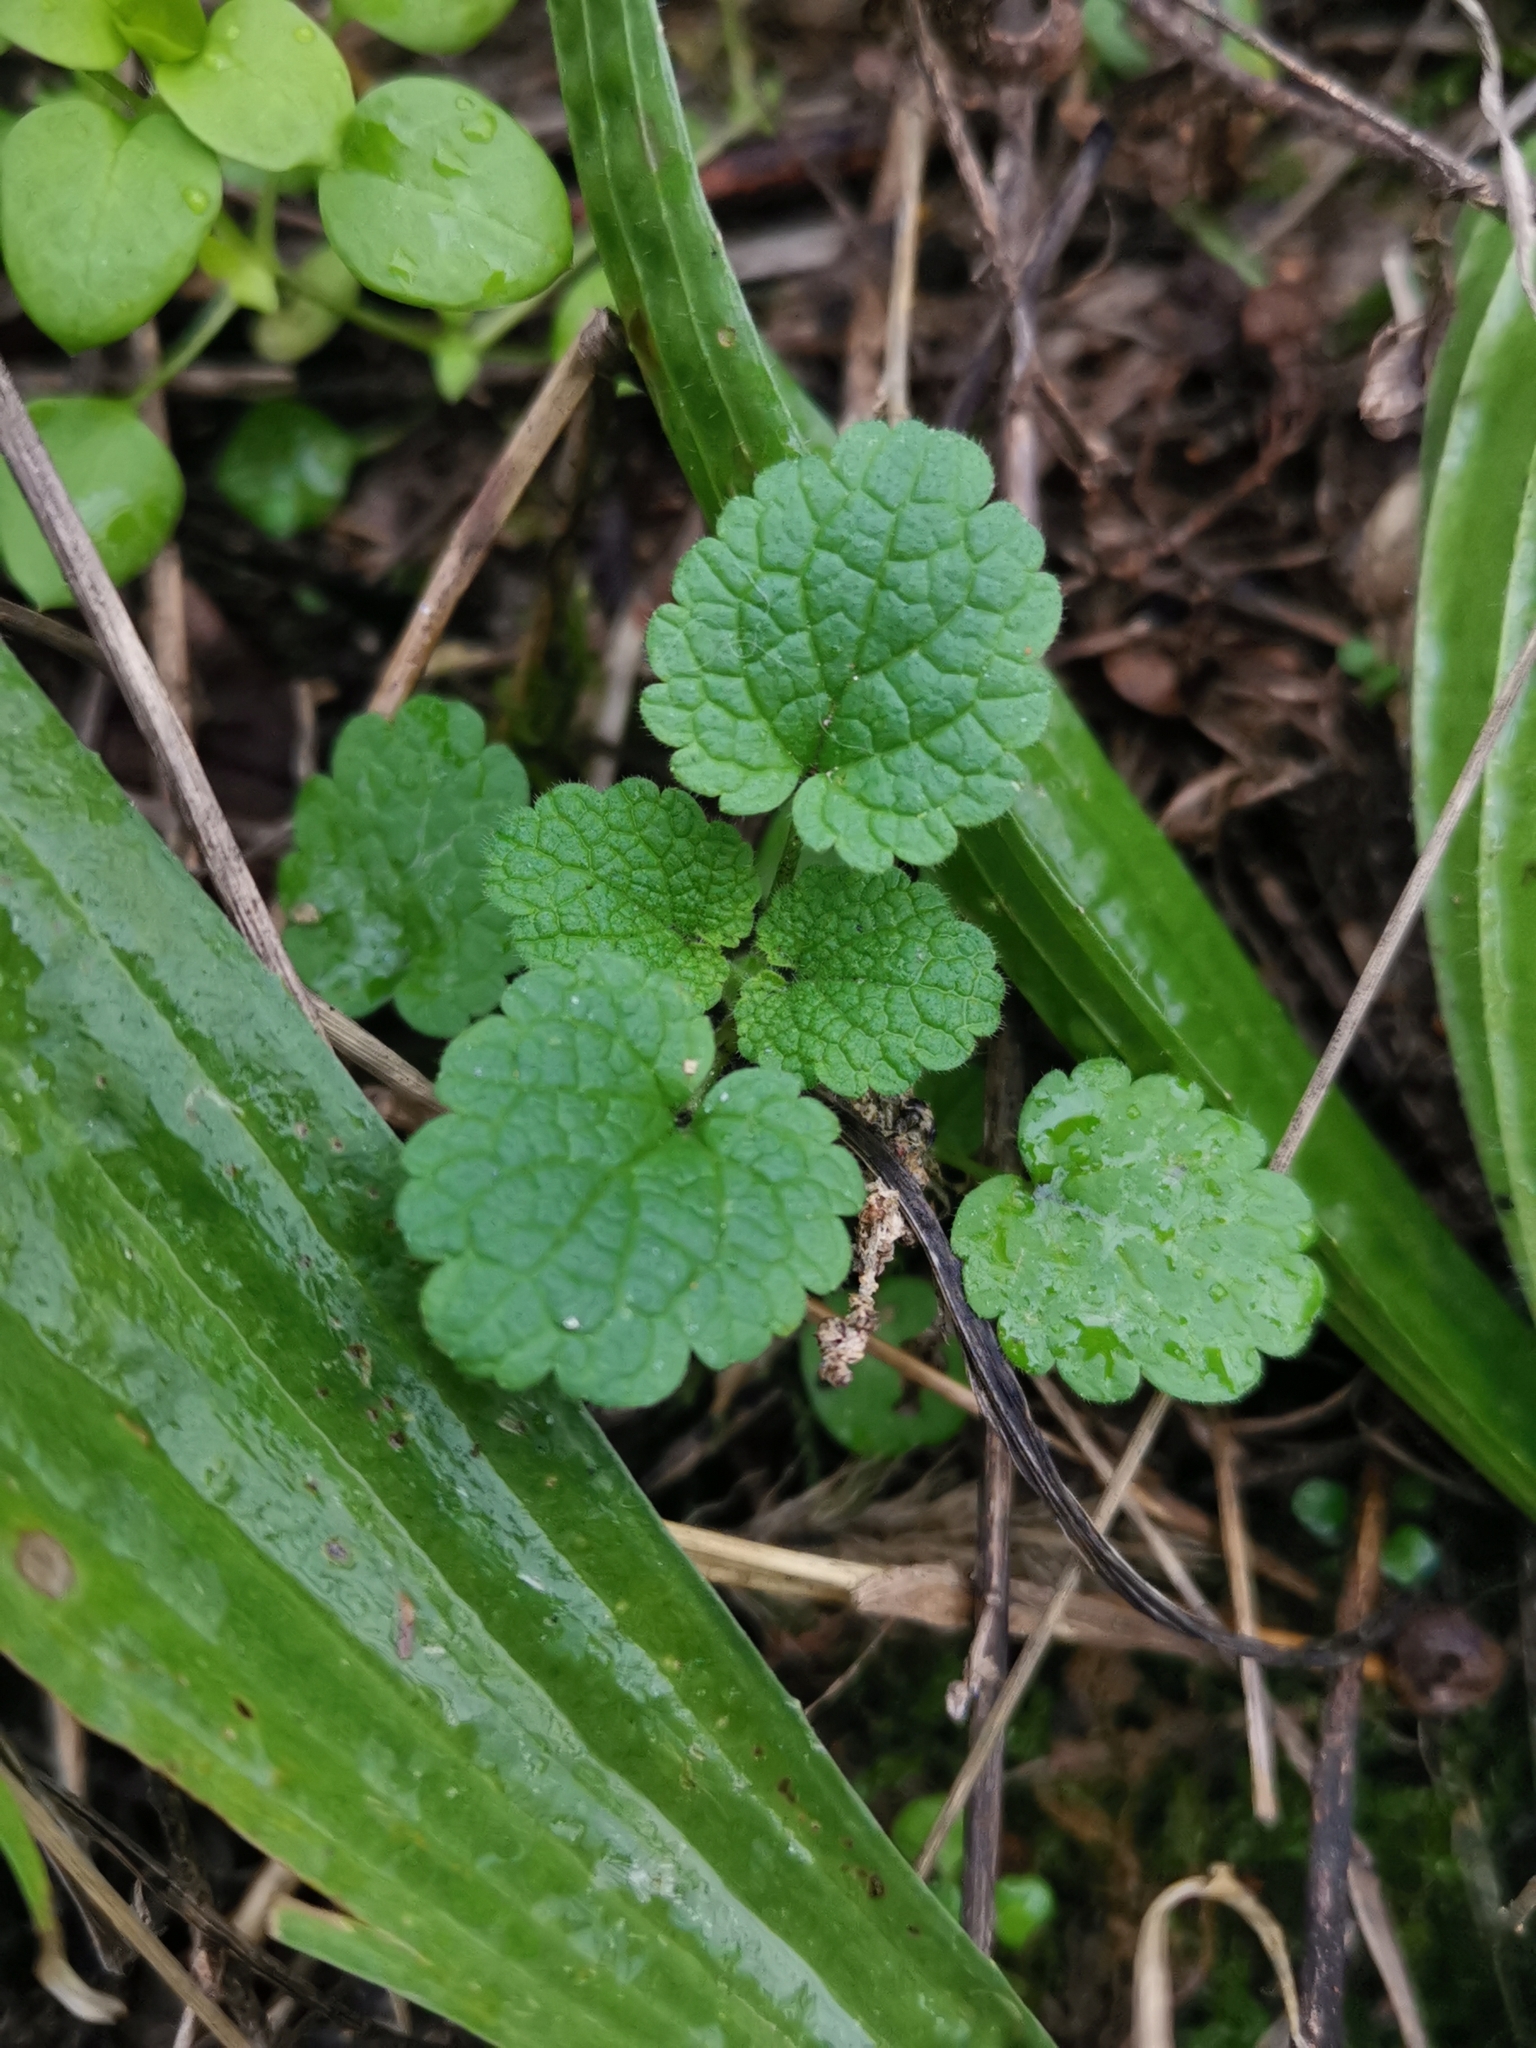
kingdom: Plantae
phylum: Tracheophyta
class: Magnoliopsida
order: Lamiales
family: Lamiaceae
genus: Lamium
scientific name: Lamium purpureum
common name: Red dead-nettle
